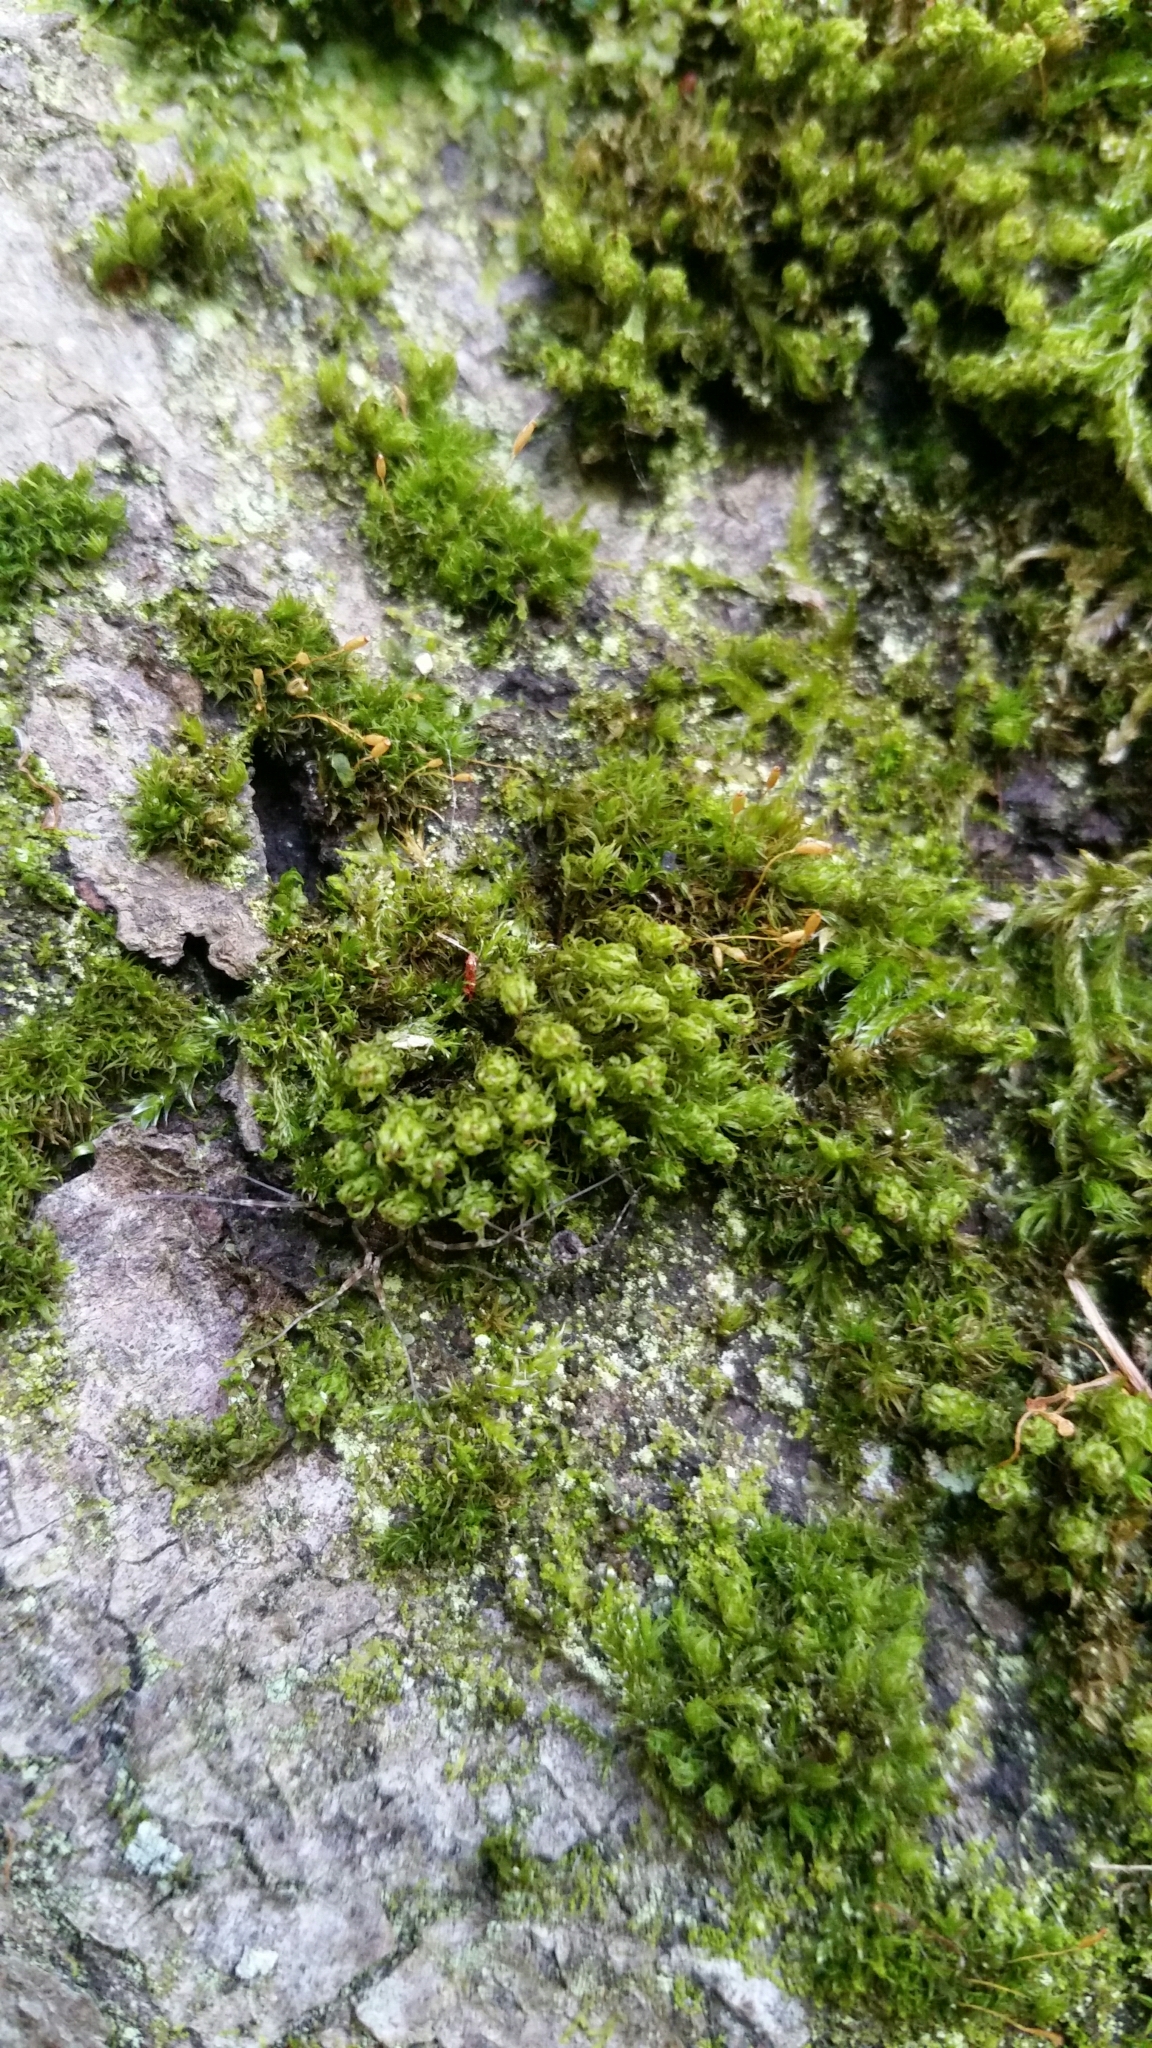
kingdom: Plantae
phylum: Bryophyta
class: Bryopsida
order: Dicranales
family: Rhabdoweisiaceae
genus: Dicranoweisia
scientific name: Dicranoweisia cirrata
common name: Common pincushion
